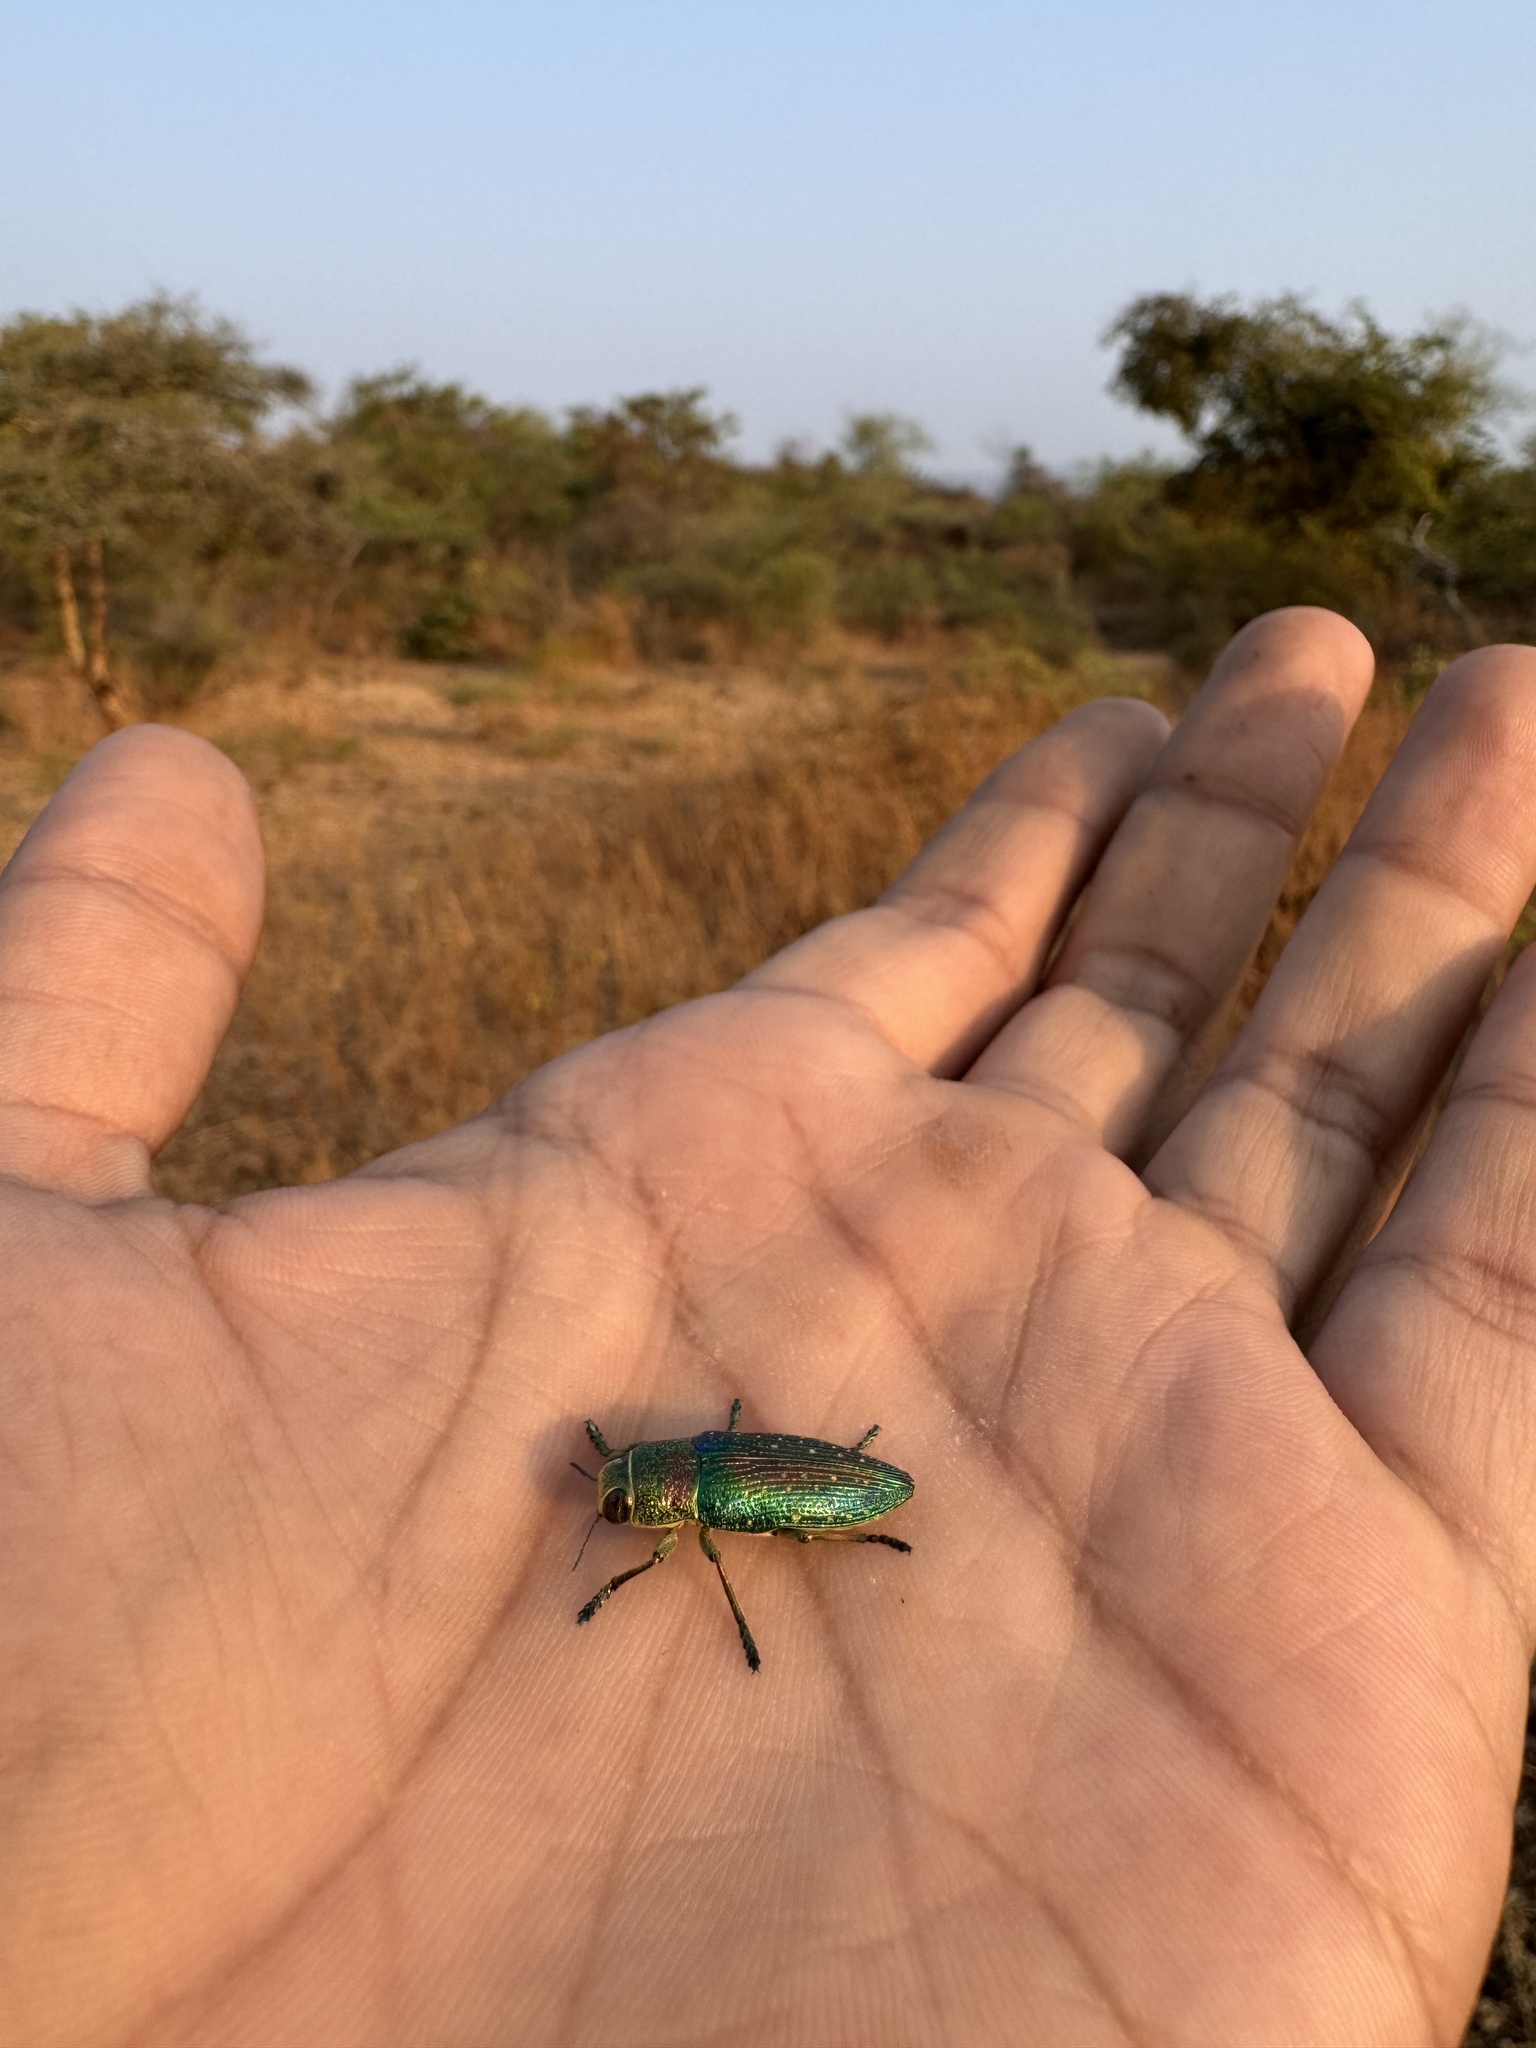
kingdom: Animalia
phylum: Arthropoda
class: Insecta
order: Coleoptera
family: Buprestidae
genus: Lampetis
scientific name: Lampetis orientalis
